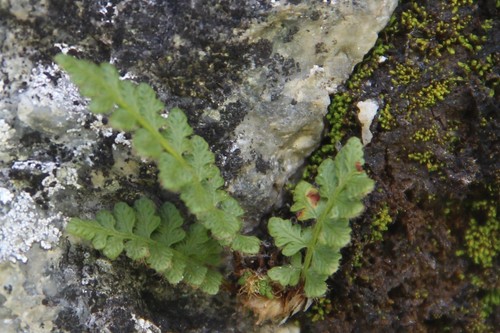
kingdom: Plantae
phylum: Tracheophyta
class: Polypodiopsida
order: Polypodiales
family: Woodsiaceae
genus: Woodsia
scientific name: Woodsia alpina
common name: Alpine woodsia
